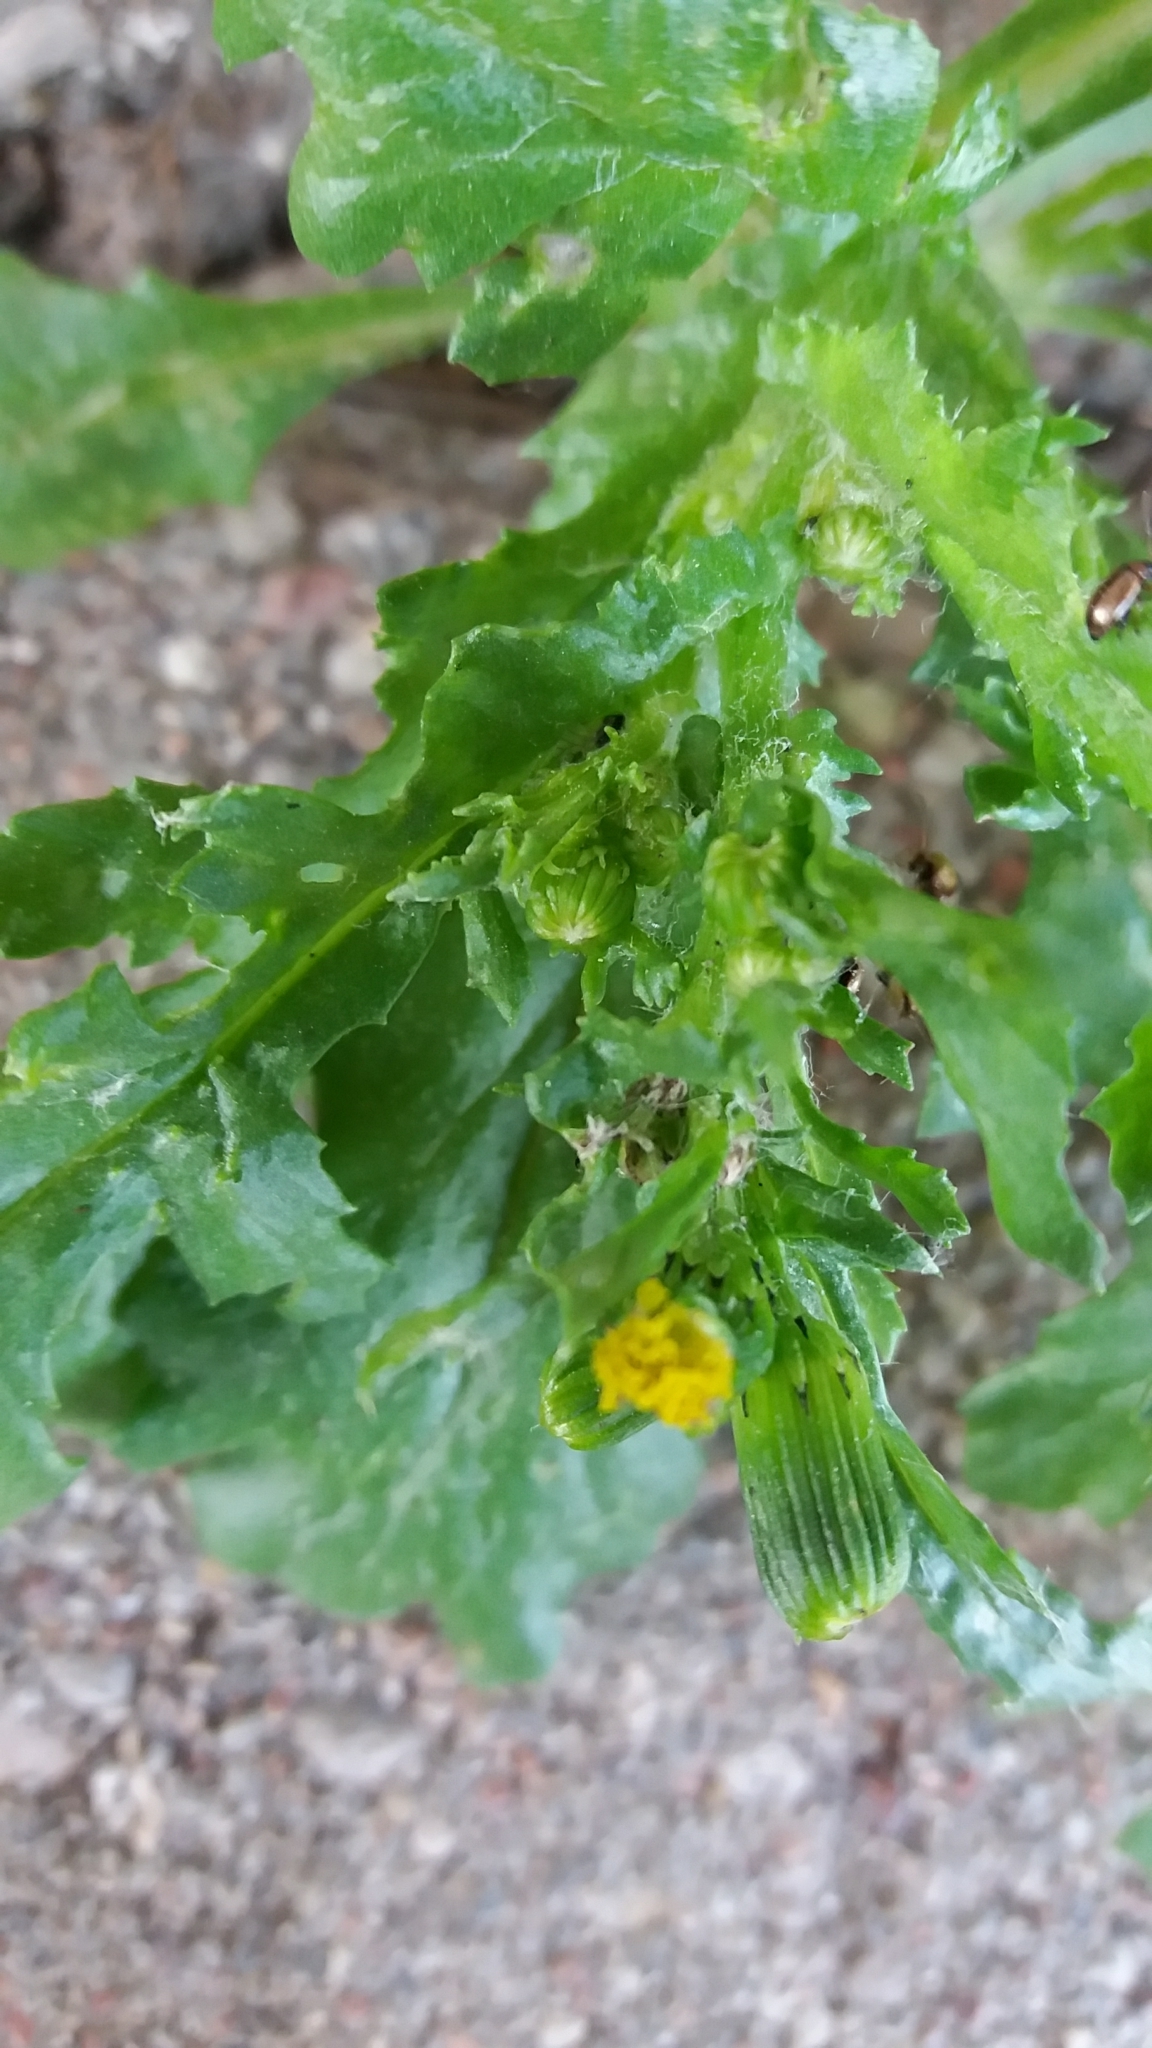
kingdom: Plantae
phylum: Tracheophyta
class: Magnoliopsida
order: Asterales
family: Asteraceae
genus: Senecio
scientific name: Senecio vulgaris
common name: Old-man-in-the-spring
